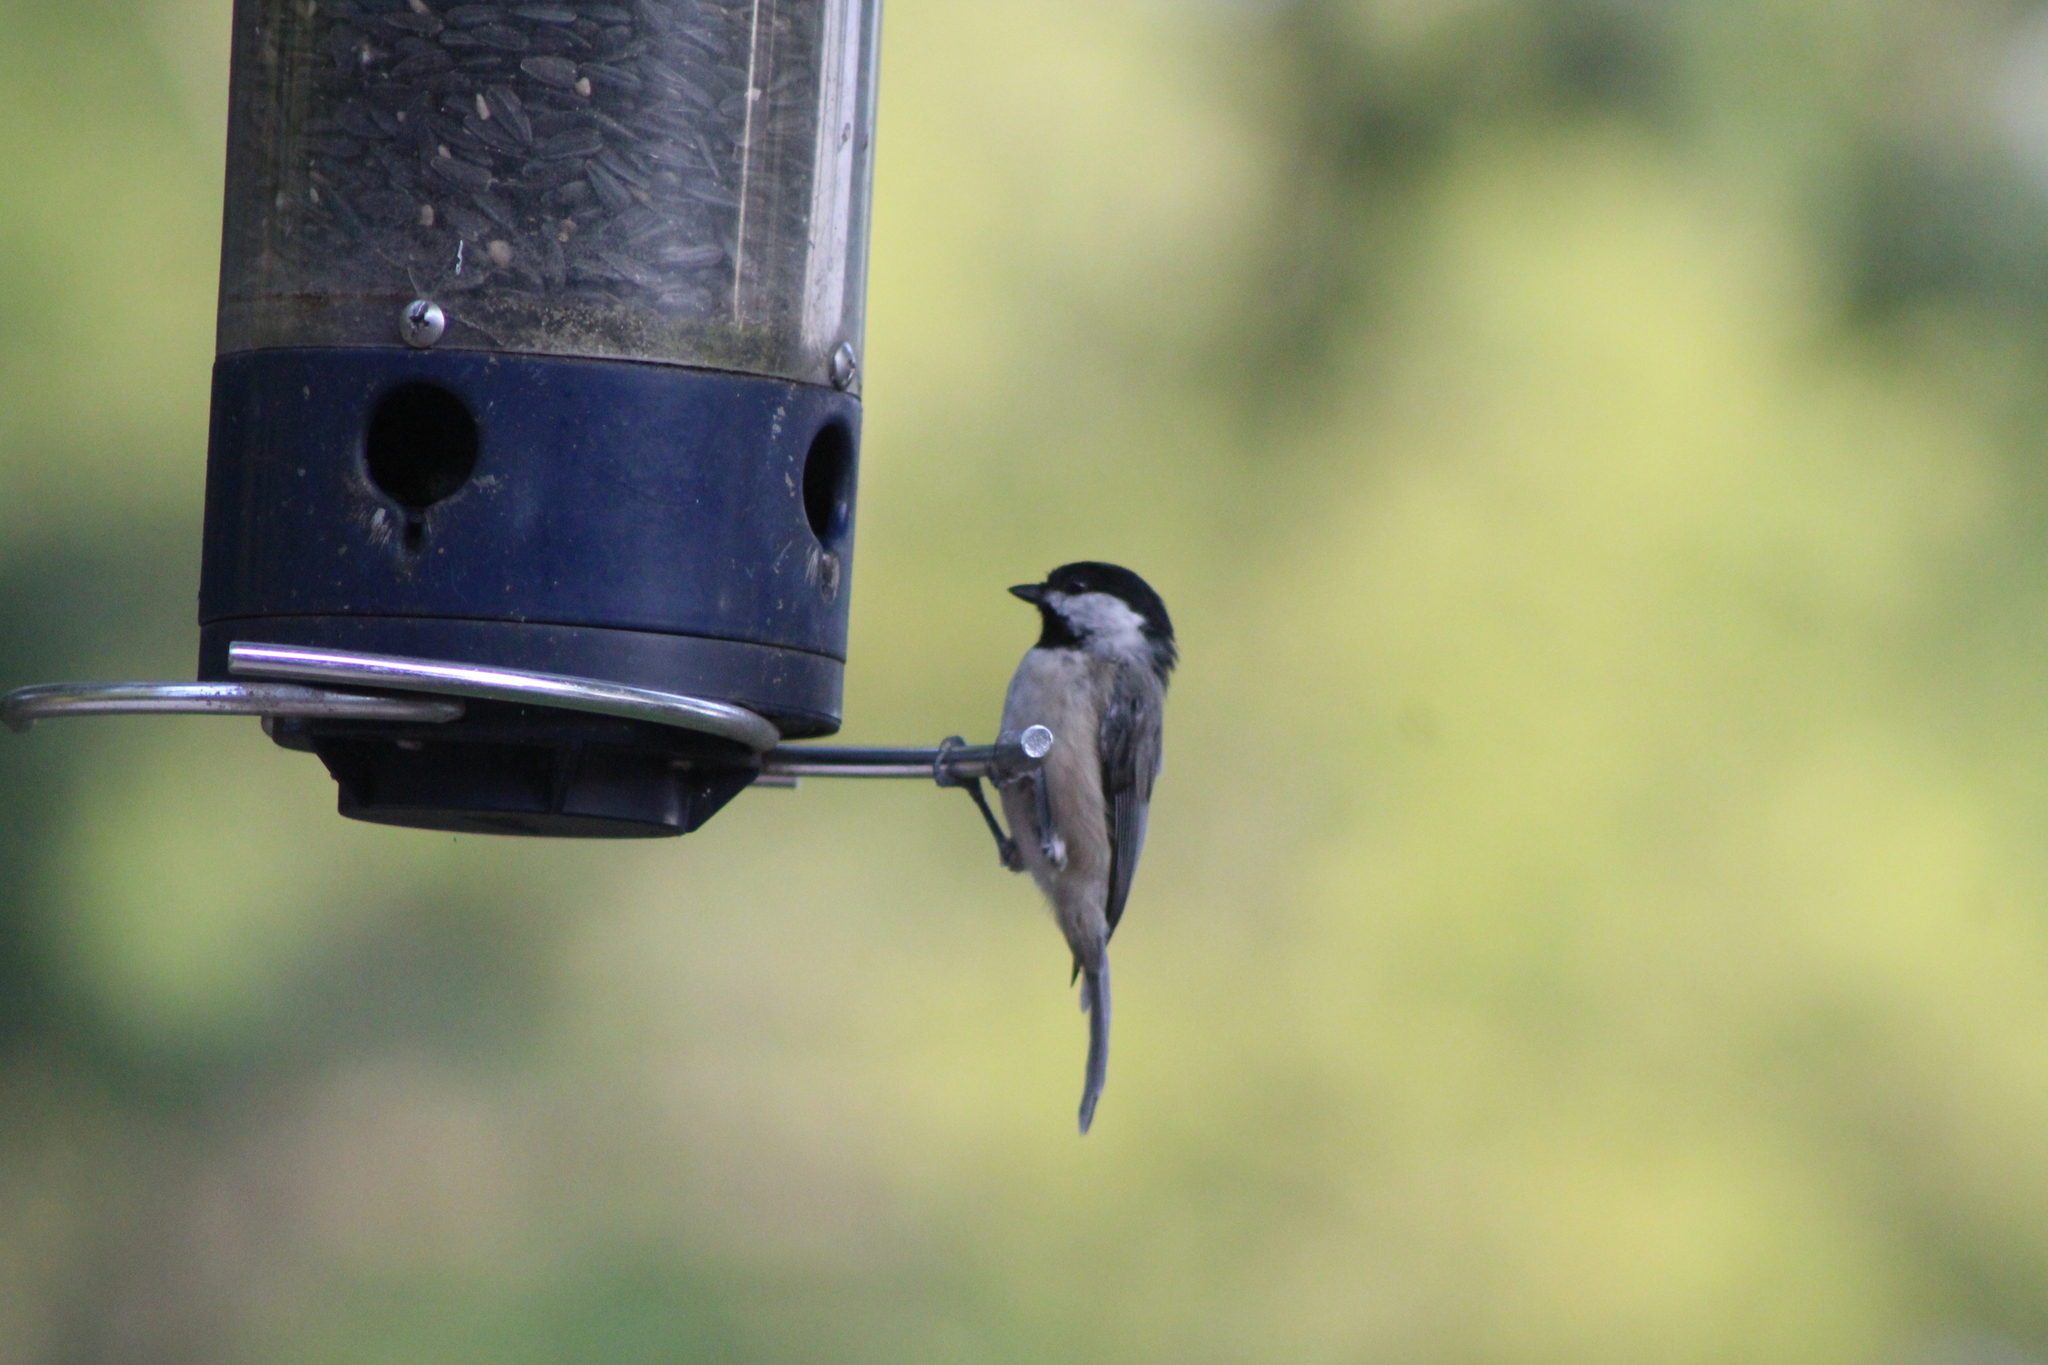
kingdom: Animalia
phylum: Chordata
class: Aves
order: Passeriformes
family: Paridae
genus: Poecile
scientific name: Poecile carolinensis
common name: Carolina chickadee
